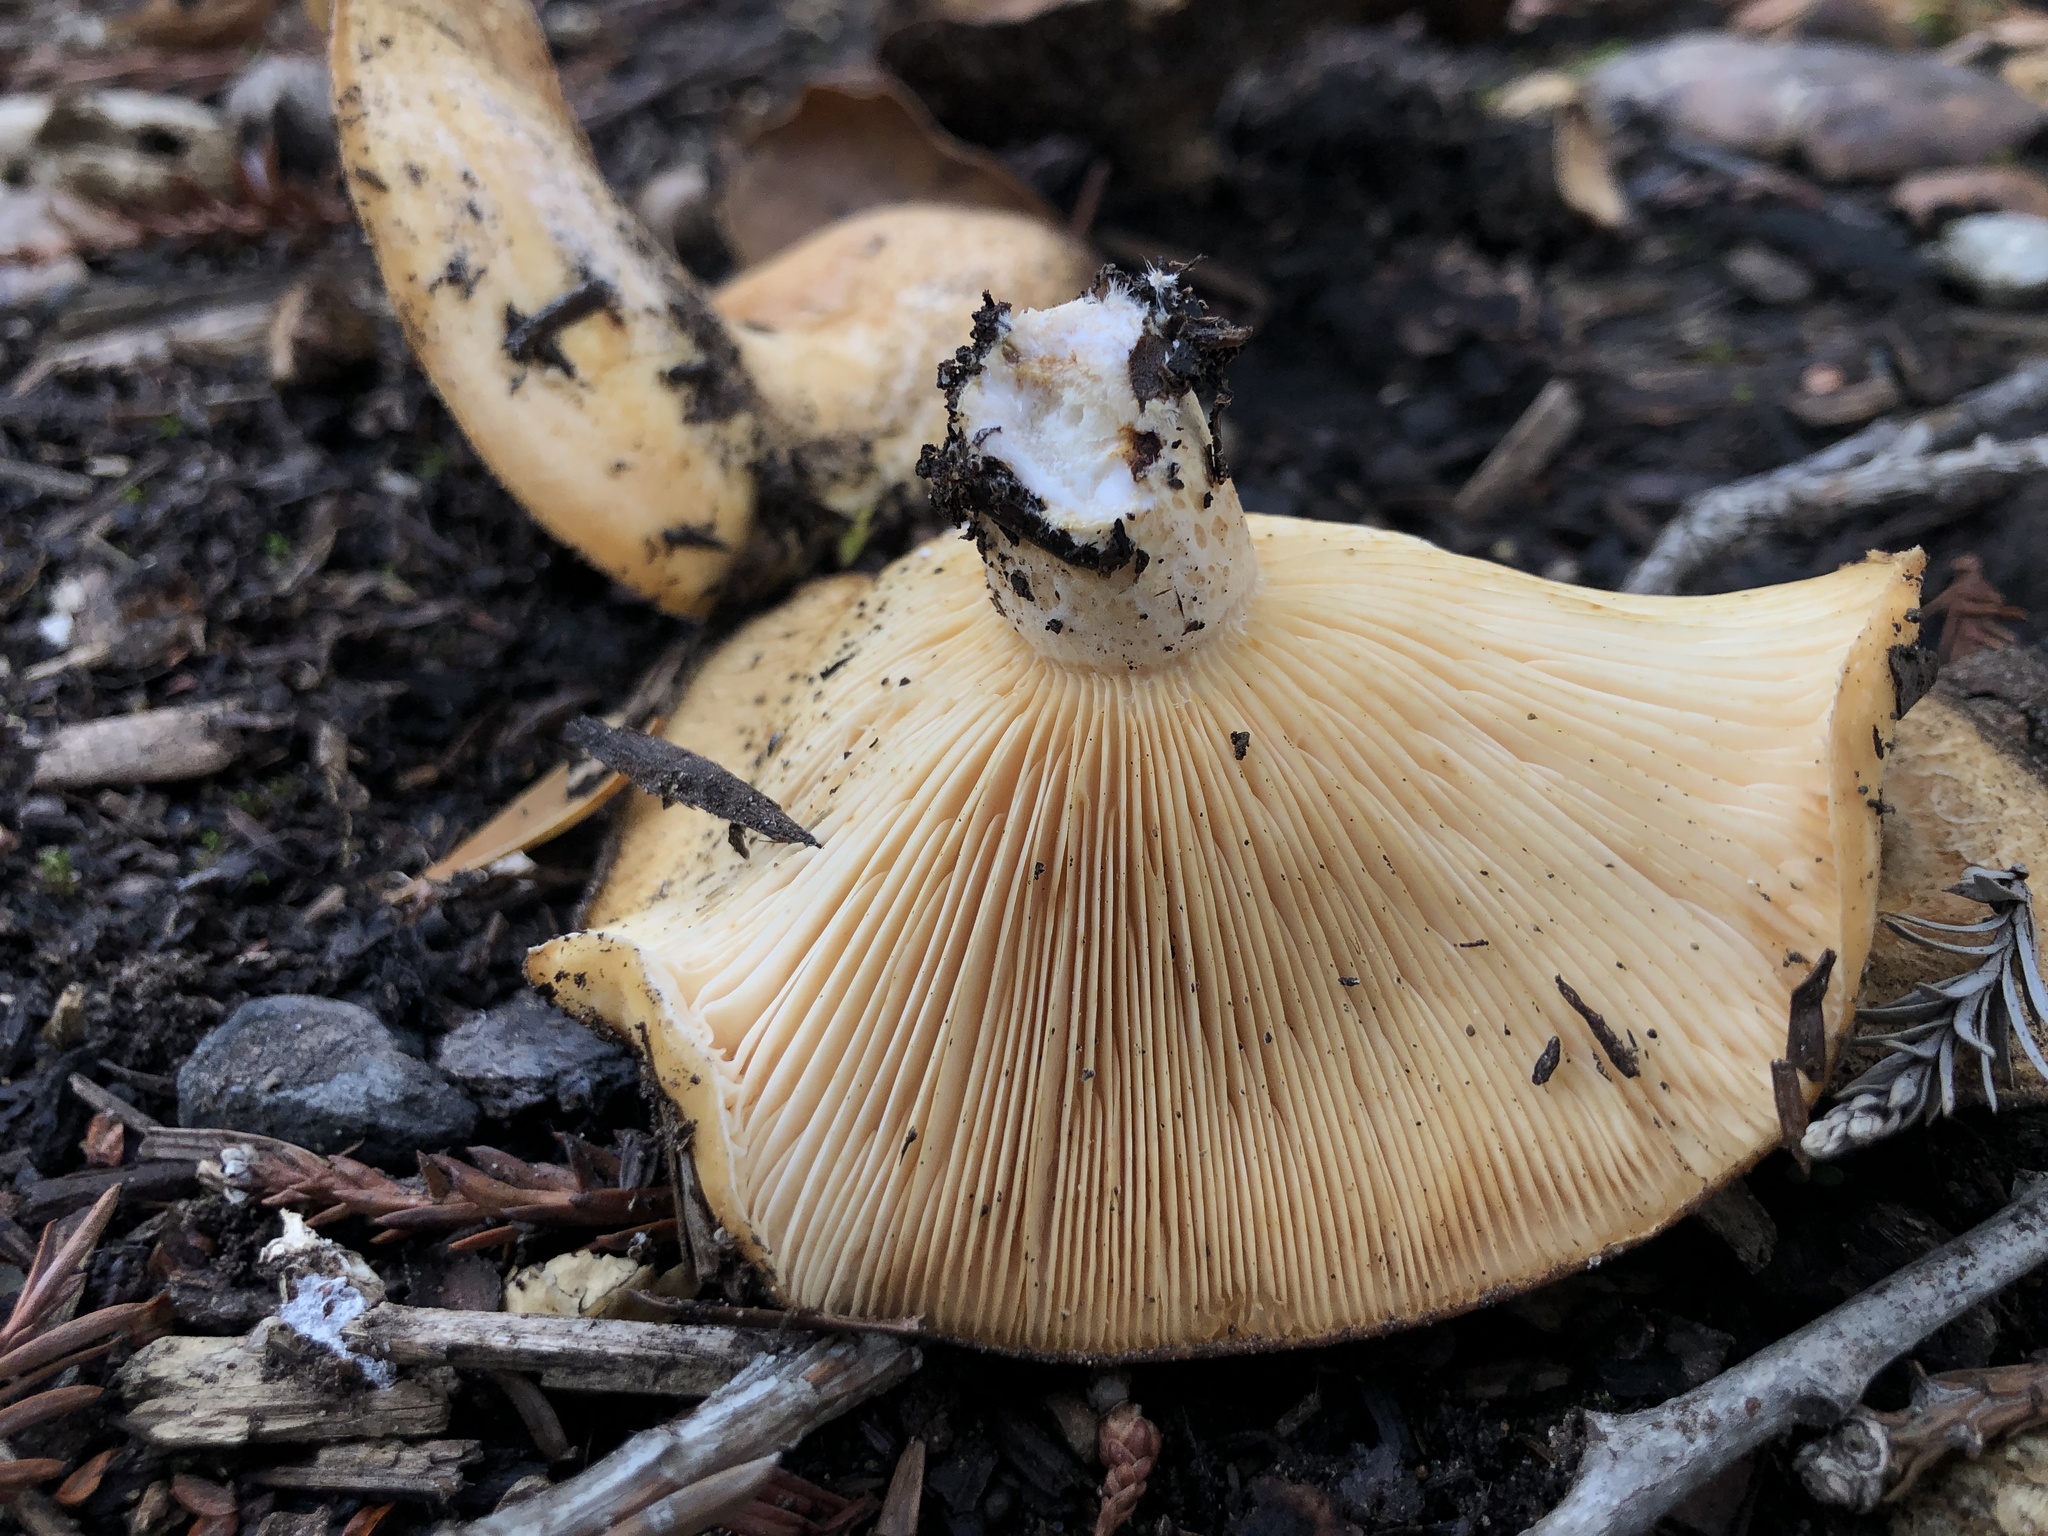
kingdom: Fungi
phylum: Basidiomycota
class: Agaricomycetes
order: Russulales
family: Russulaceae
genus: Lactarius
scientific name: Lactarius alnicola
